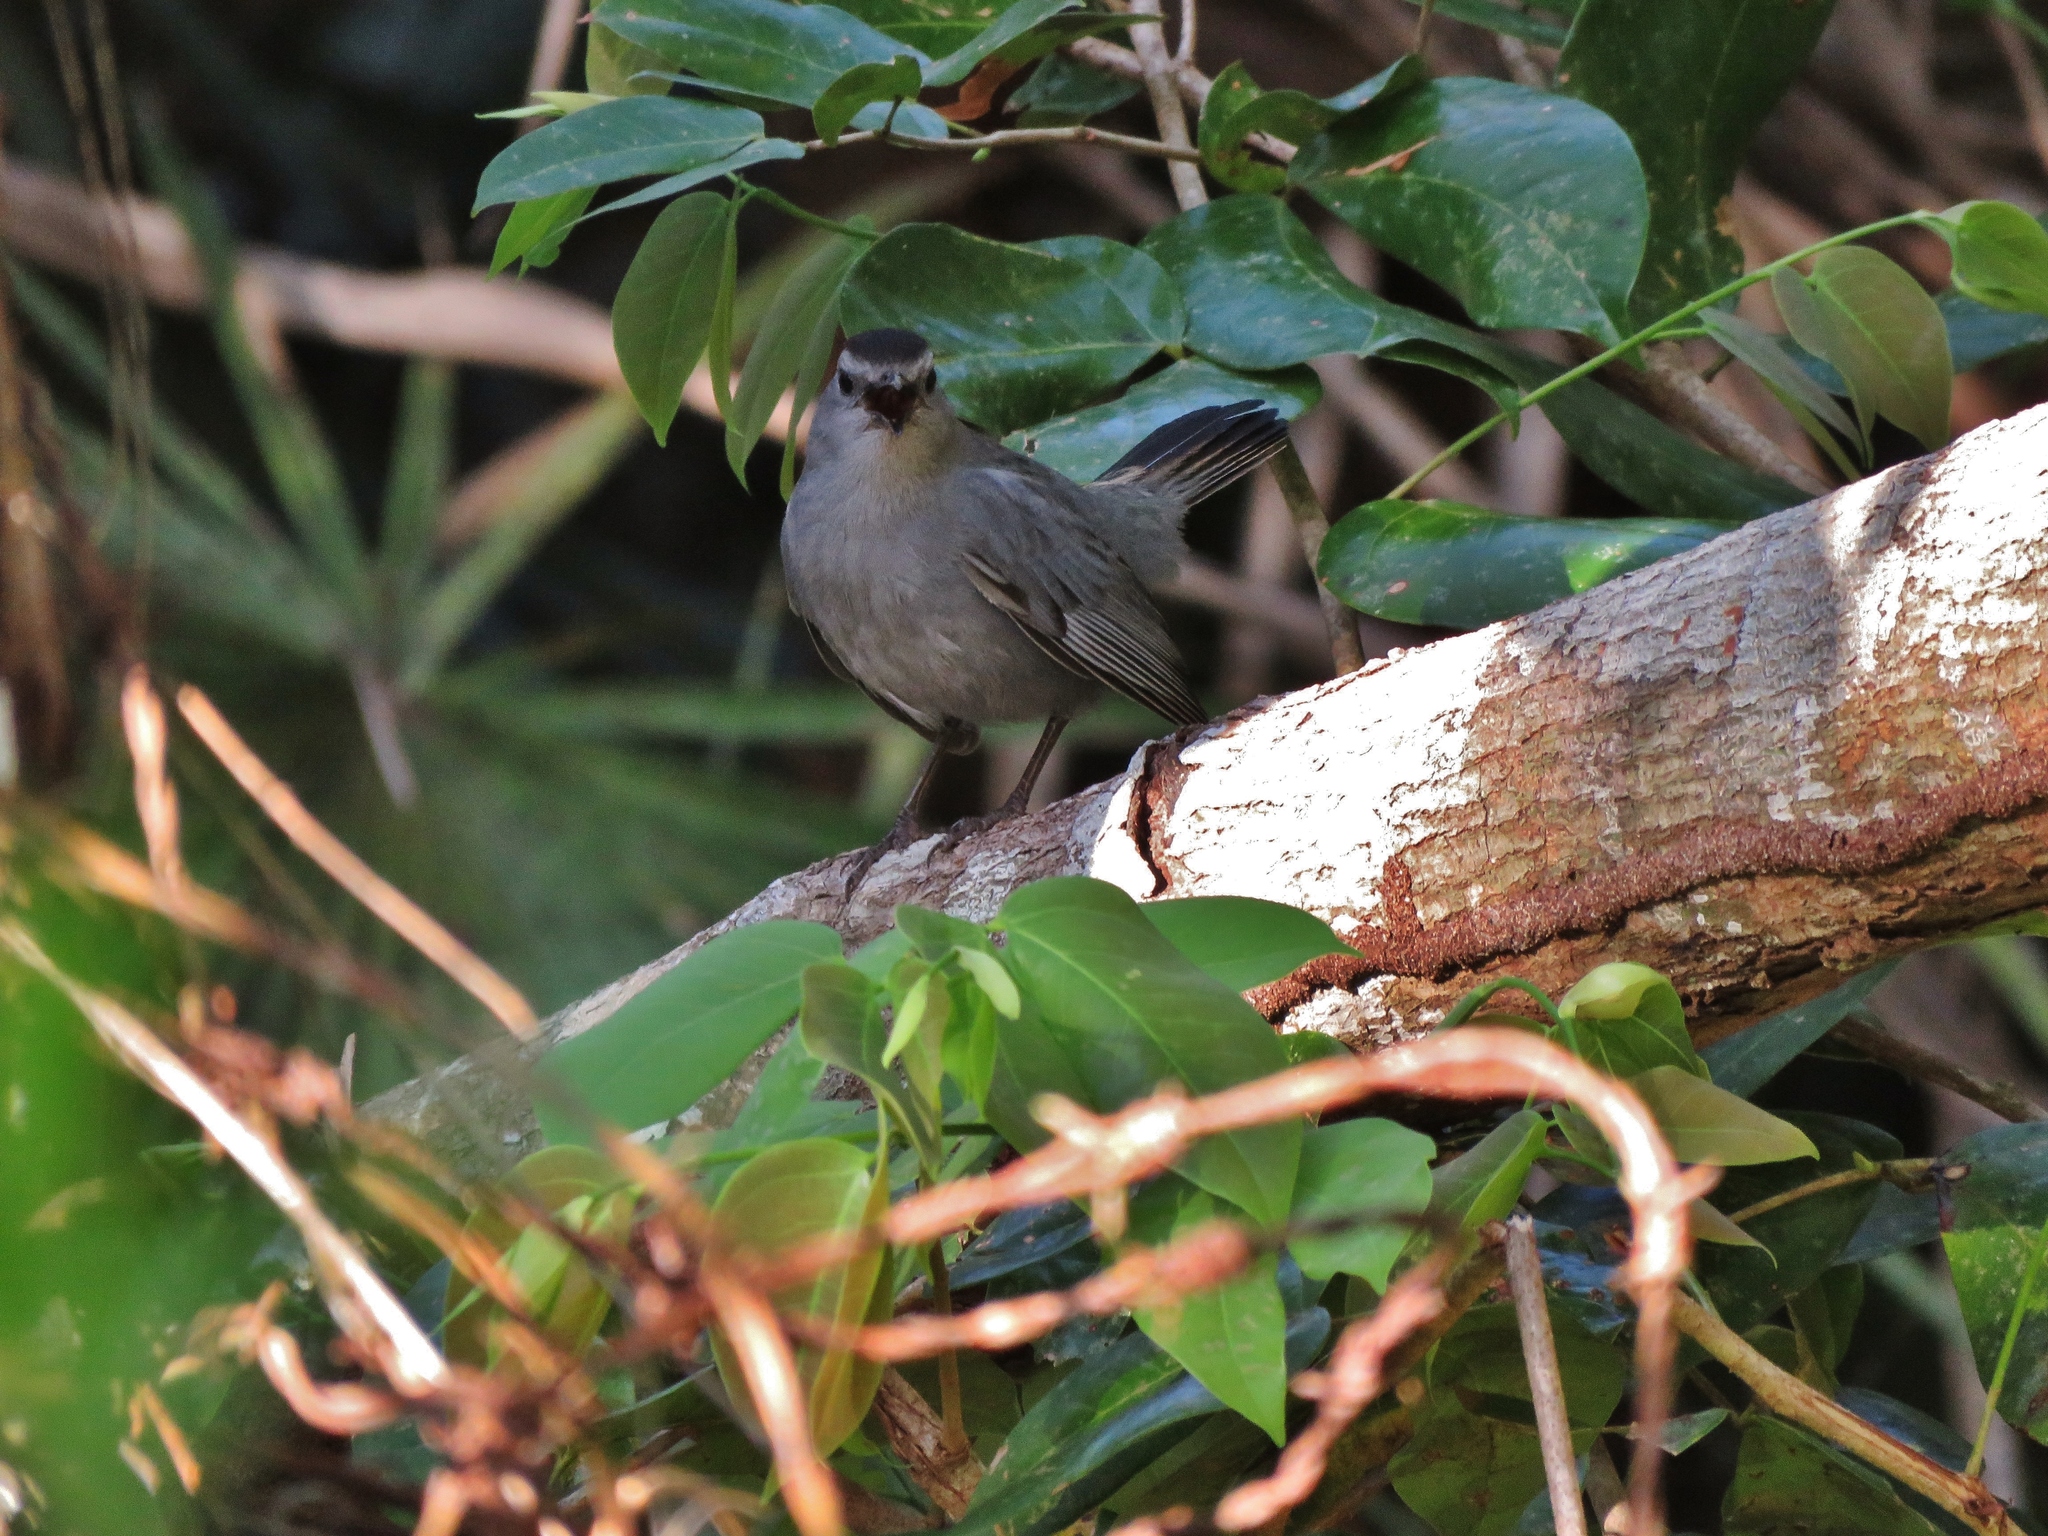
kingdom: Animalia
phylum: Chordata
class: Aves
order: Passeriformes
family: Mimidae
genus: Dumetella
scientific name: Dumetella carolinensis
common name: Gray catbird
